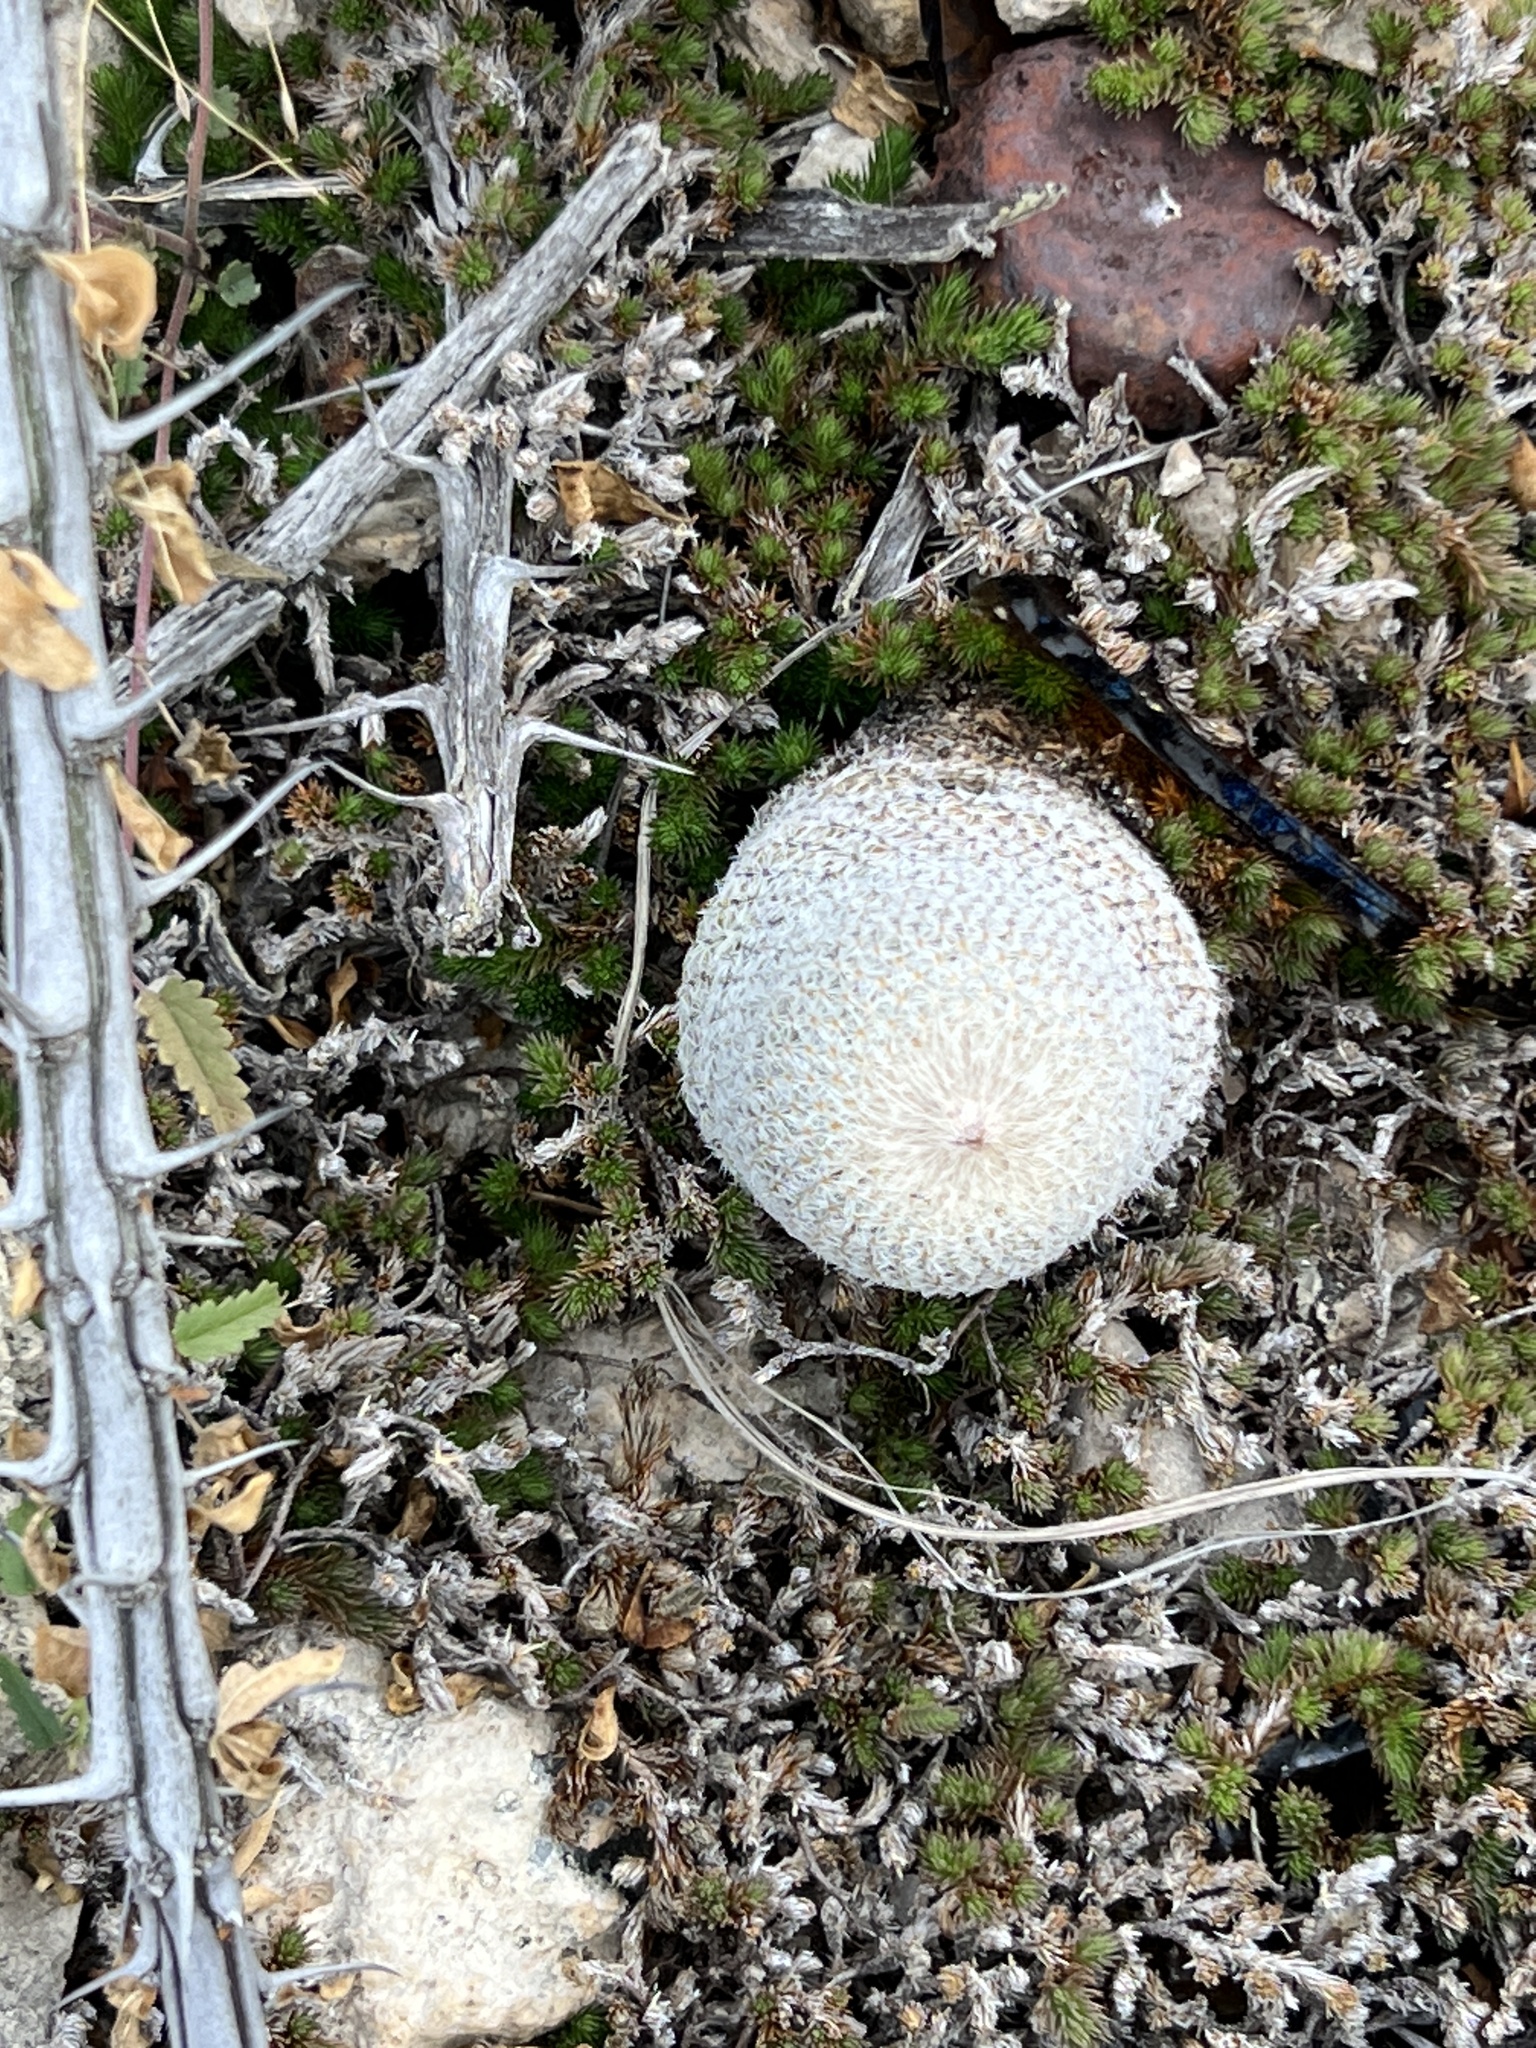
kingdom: Plantae
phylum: Tracheophyta
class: Magnoliopsida
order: Caryophyllales
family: Cactaceae
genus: Epithelantha
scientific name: Epithelantha micromeris
